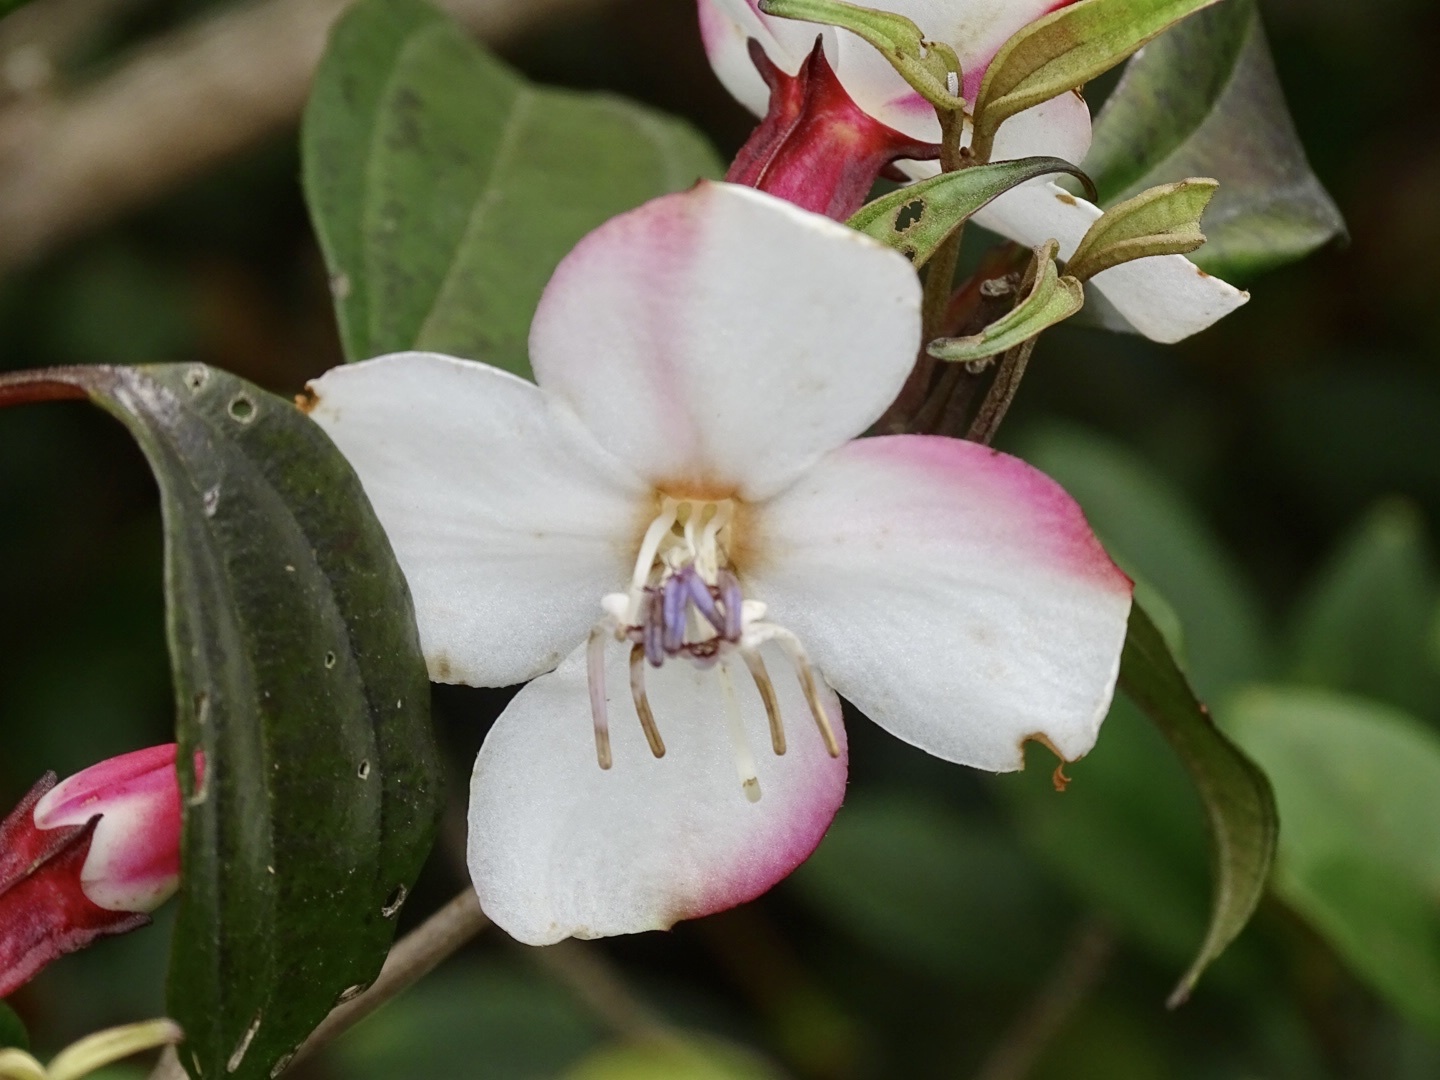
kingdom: Plantae
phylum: Tracheophyta
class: Magnoliopsida
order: Myrtales
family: Melastomataceae
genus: Barthea
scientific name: Barthea barthei
